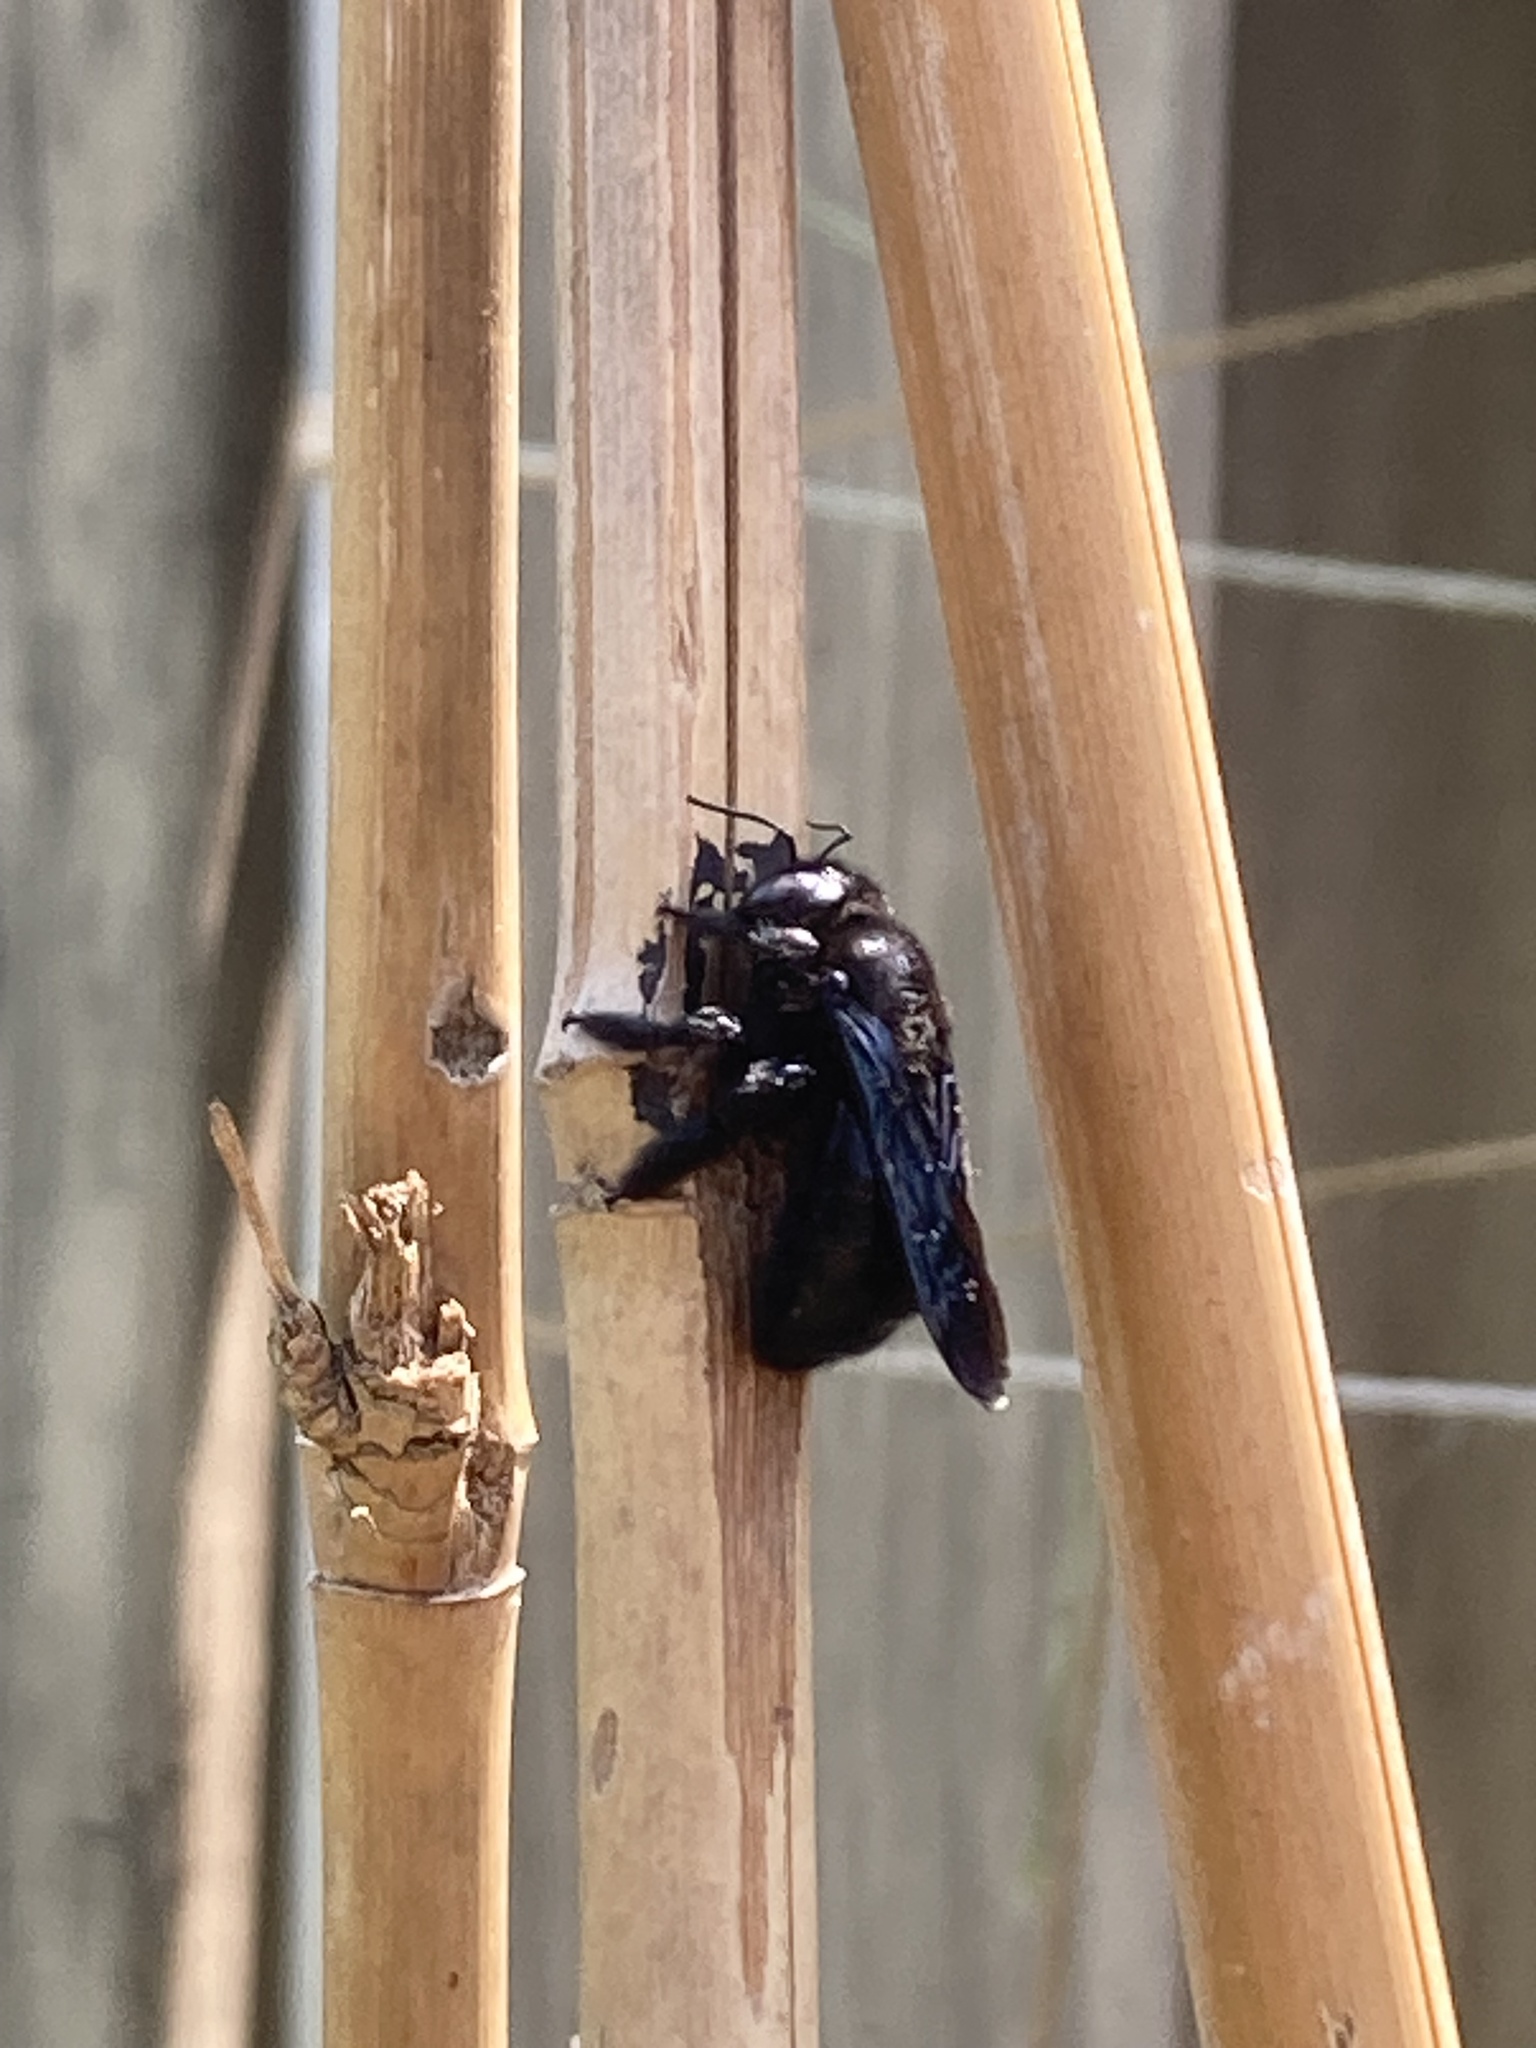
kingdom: Animalia
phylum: Arthropoda
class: Insecta
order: Hymenoptera
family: Apidae
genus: Xylocopa
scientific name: Xylocopa strandi
